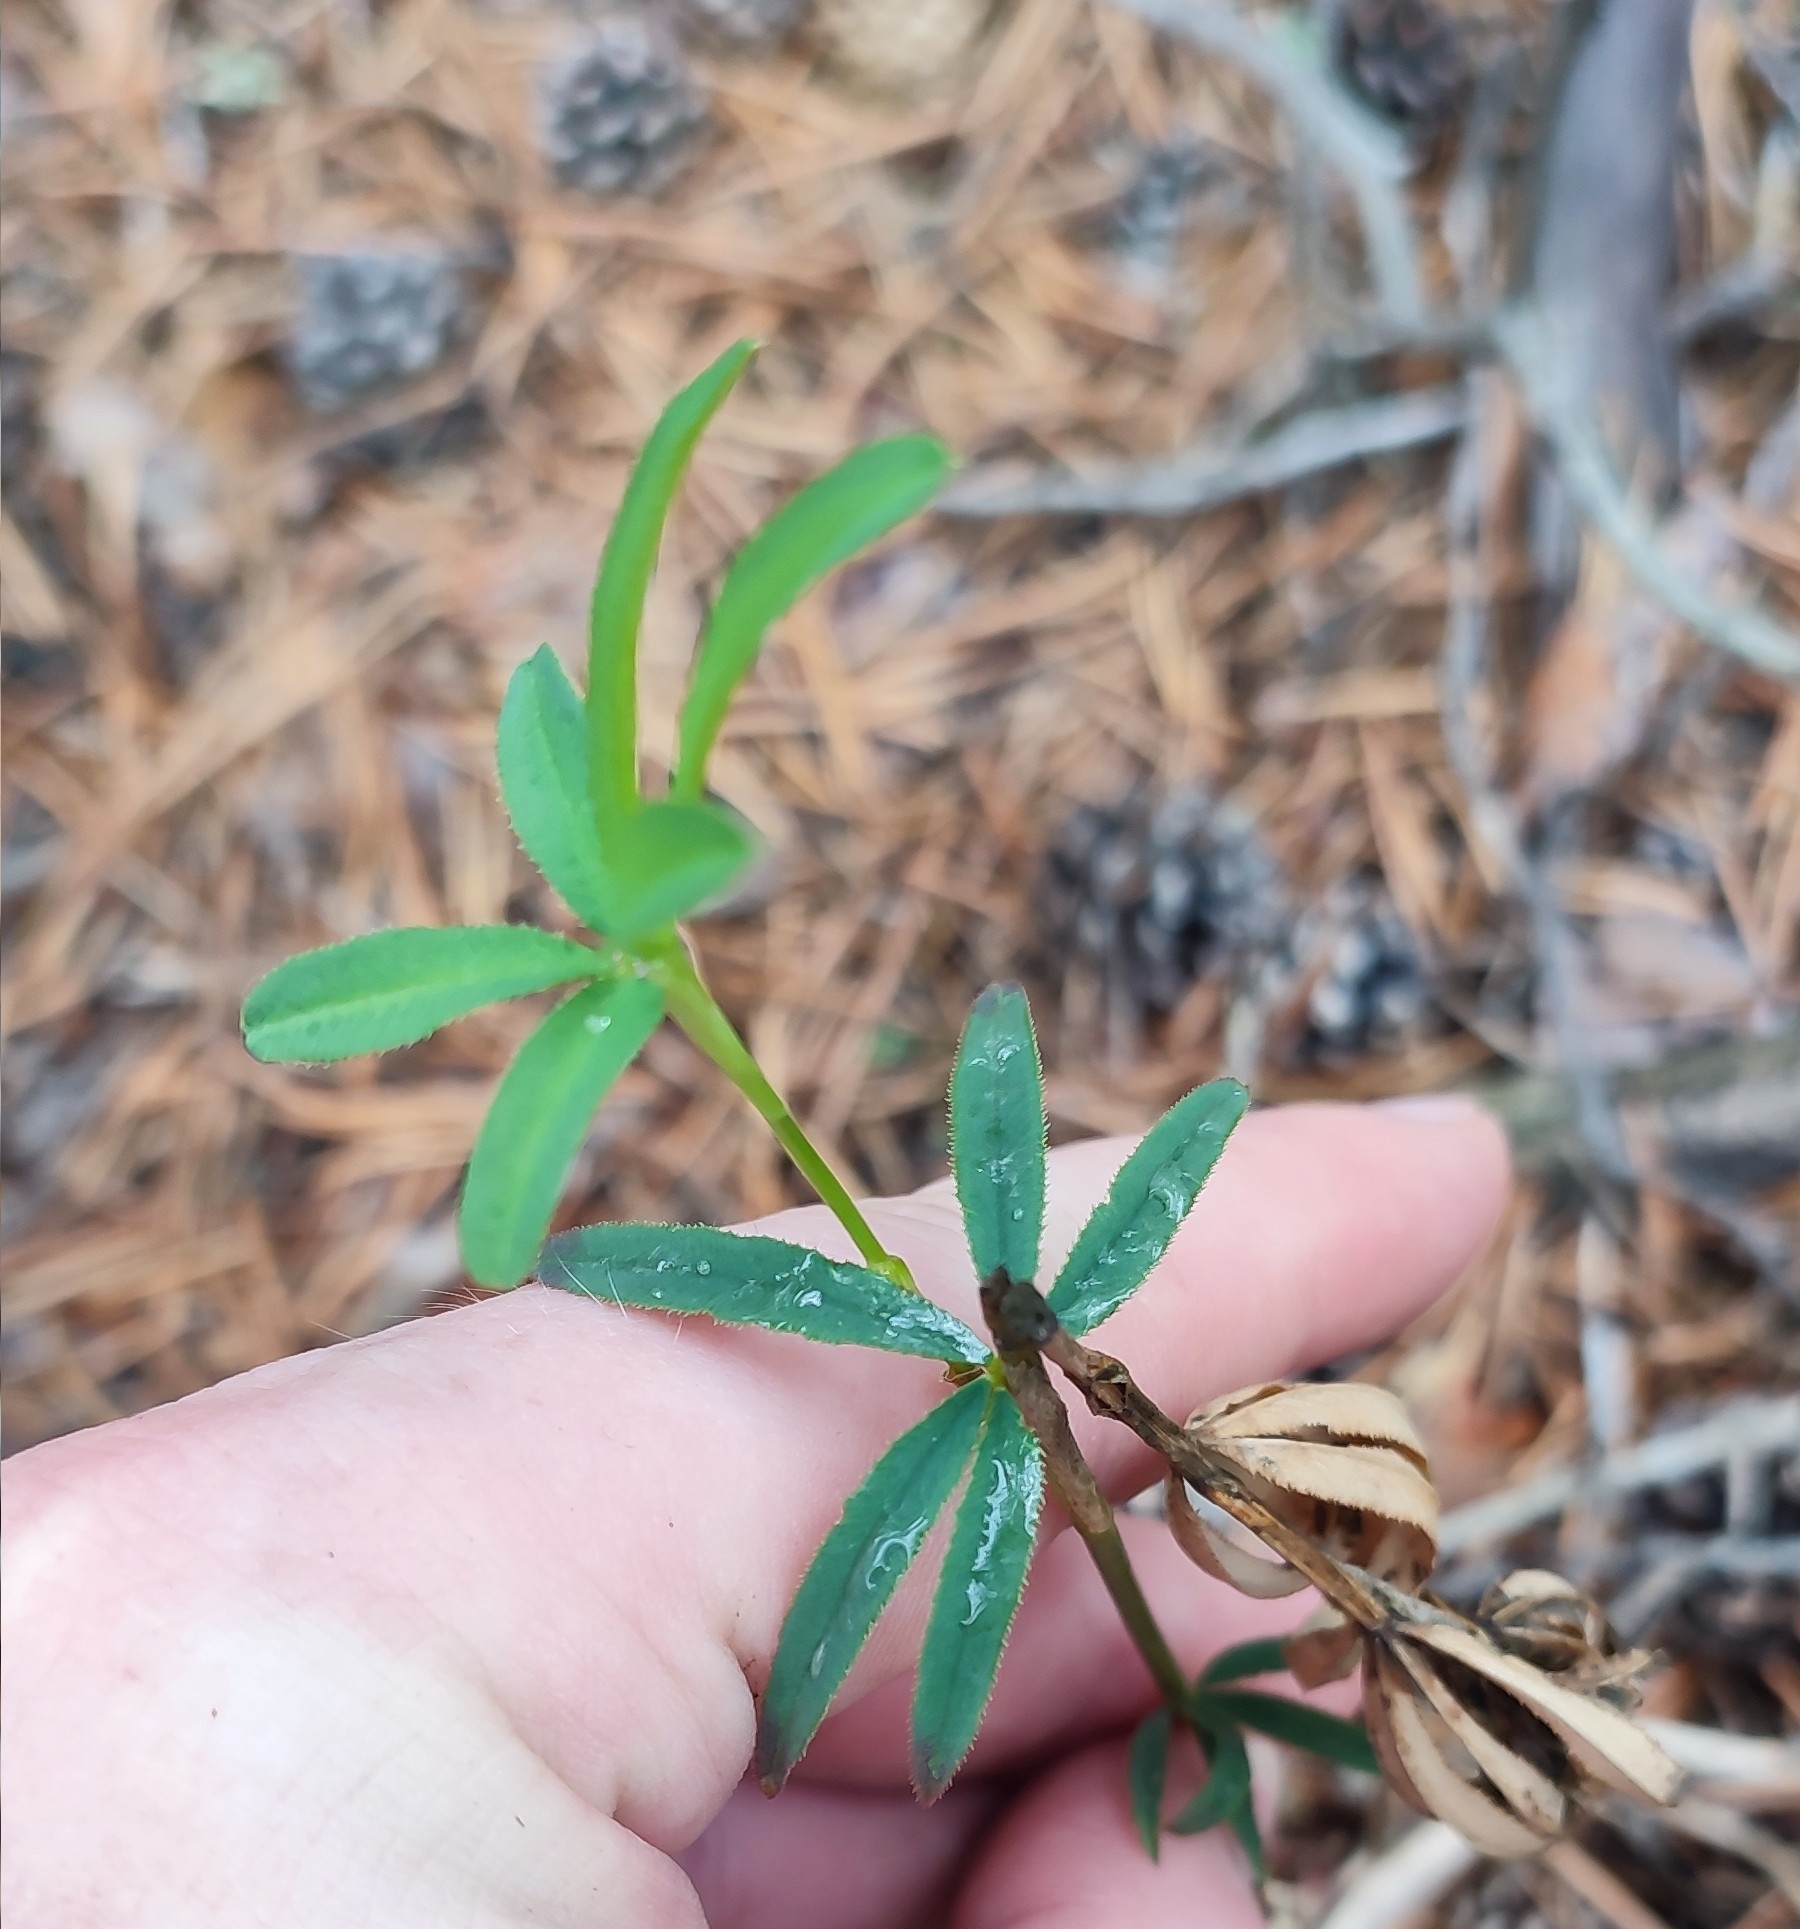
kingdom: Plantae
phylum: Tracheophyta
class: Magnoliopsida
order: Fabales
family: Fabaceae
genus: Trifolium
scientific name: Trifolium lupinaster
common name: Lupine clover
